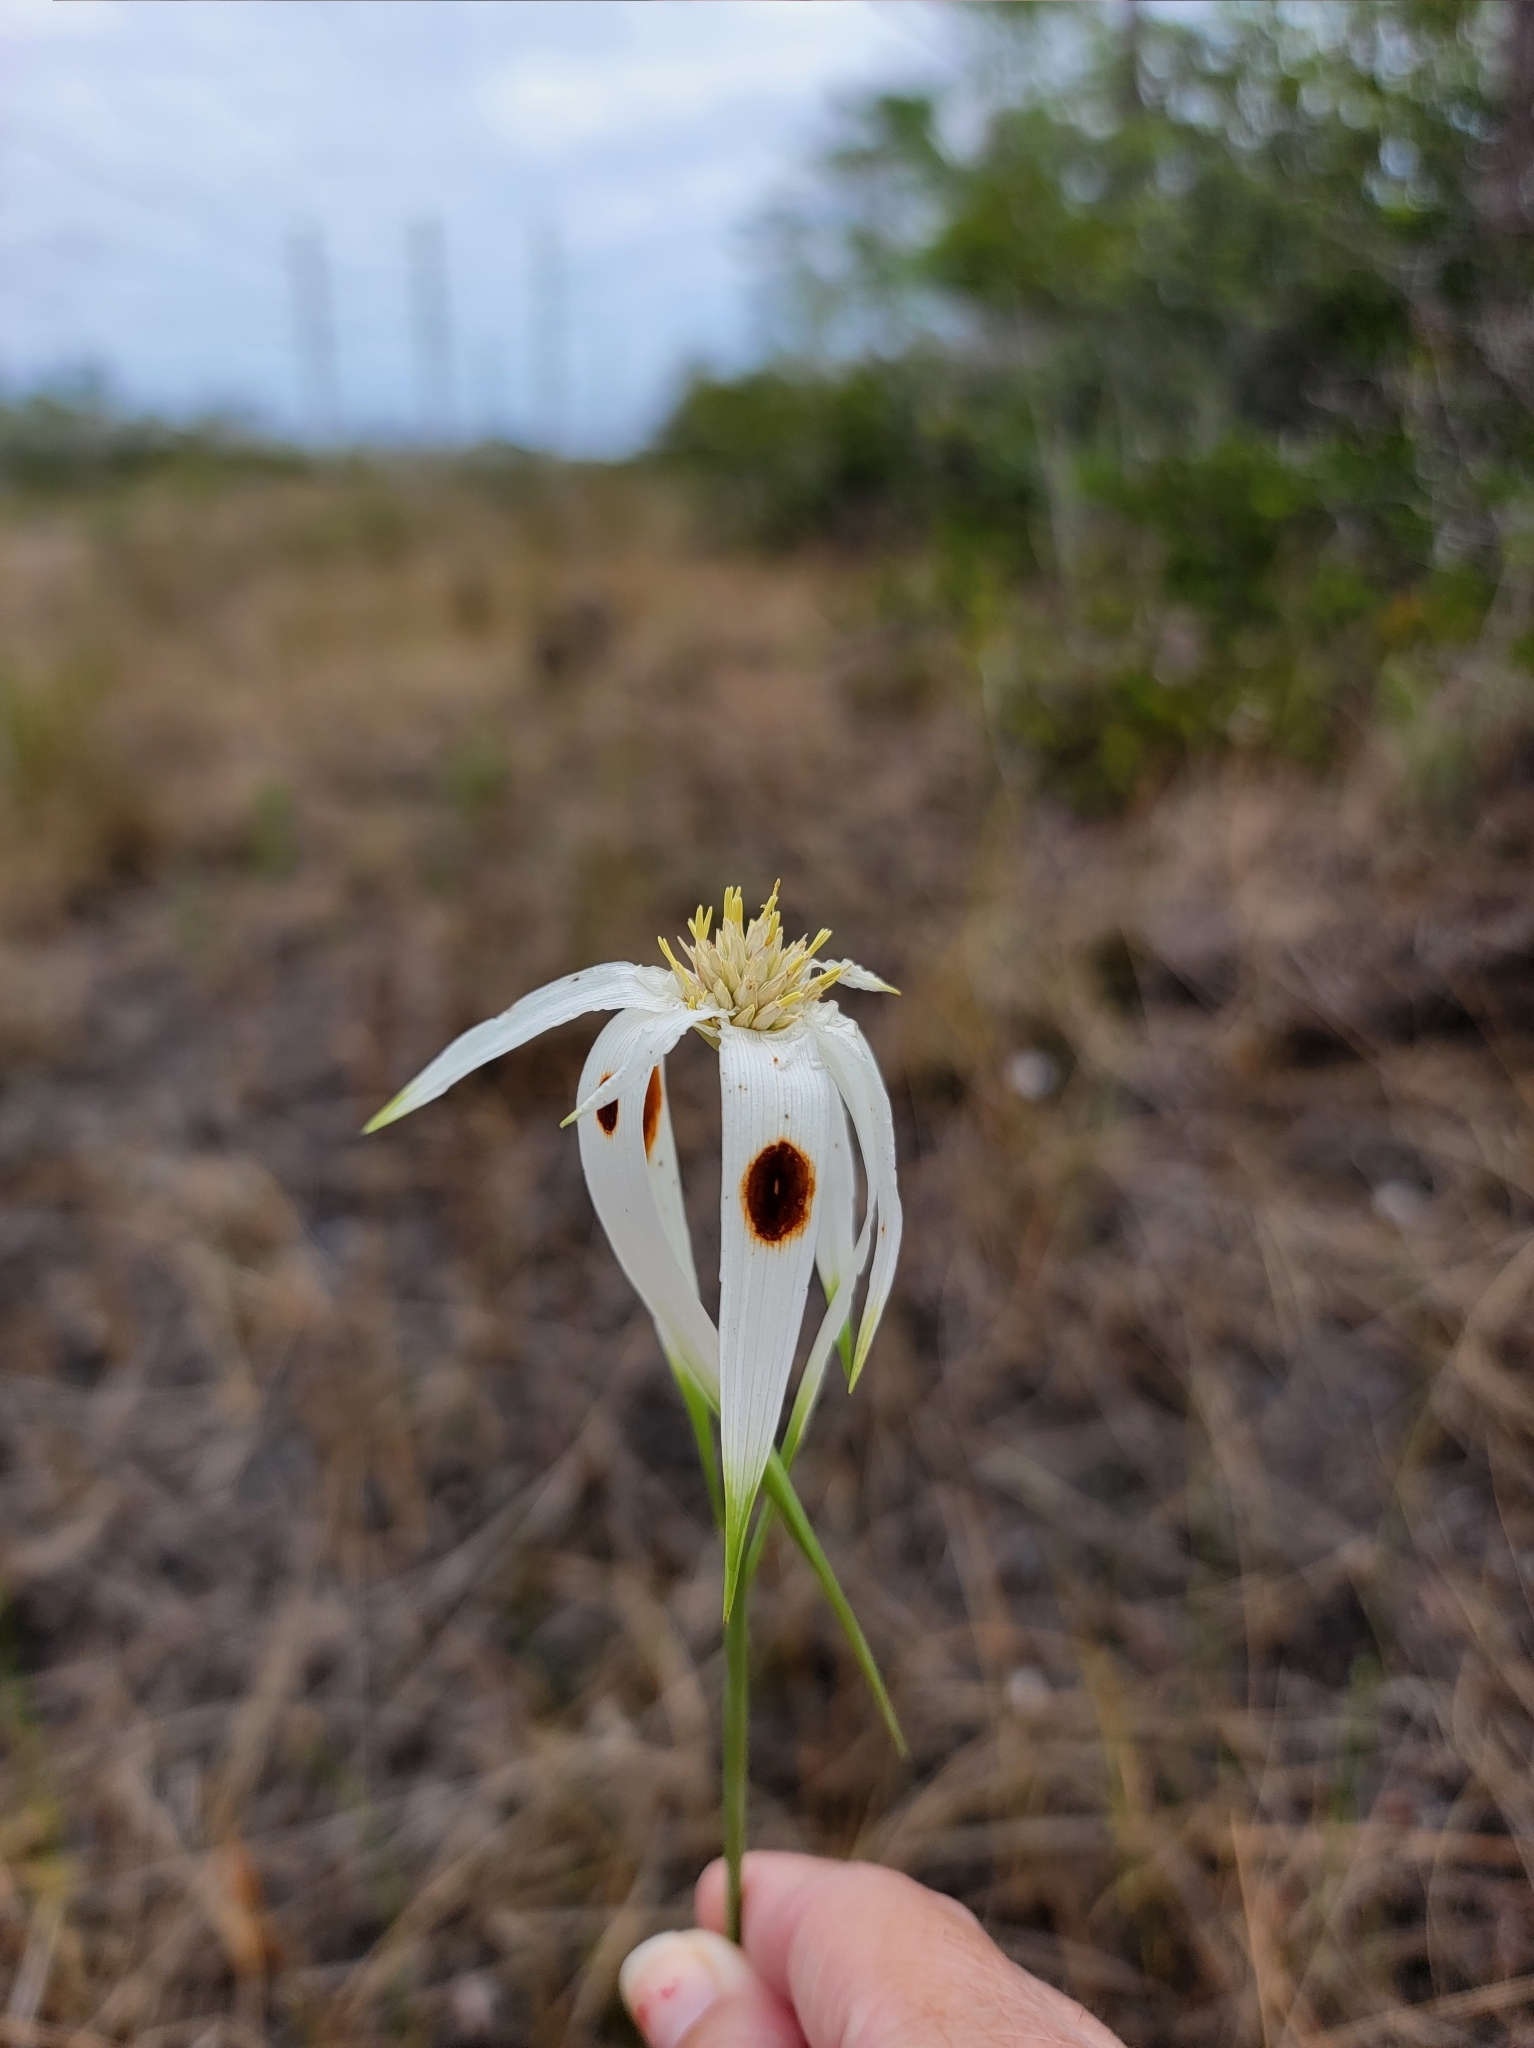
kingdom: Plantae
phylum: Tracheophyta
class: Liliopsida
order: Poales
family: Cyperaceae
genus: Rhynchospora
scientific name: Rhynchospora latifolia
